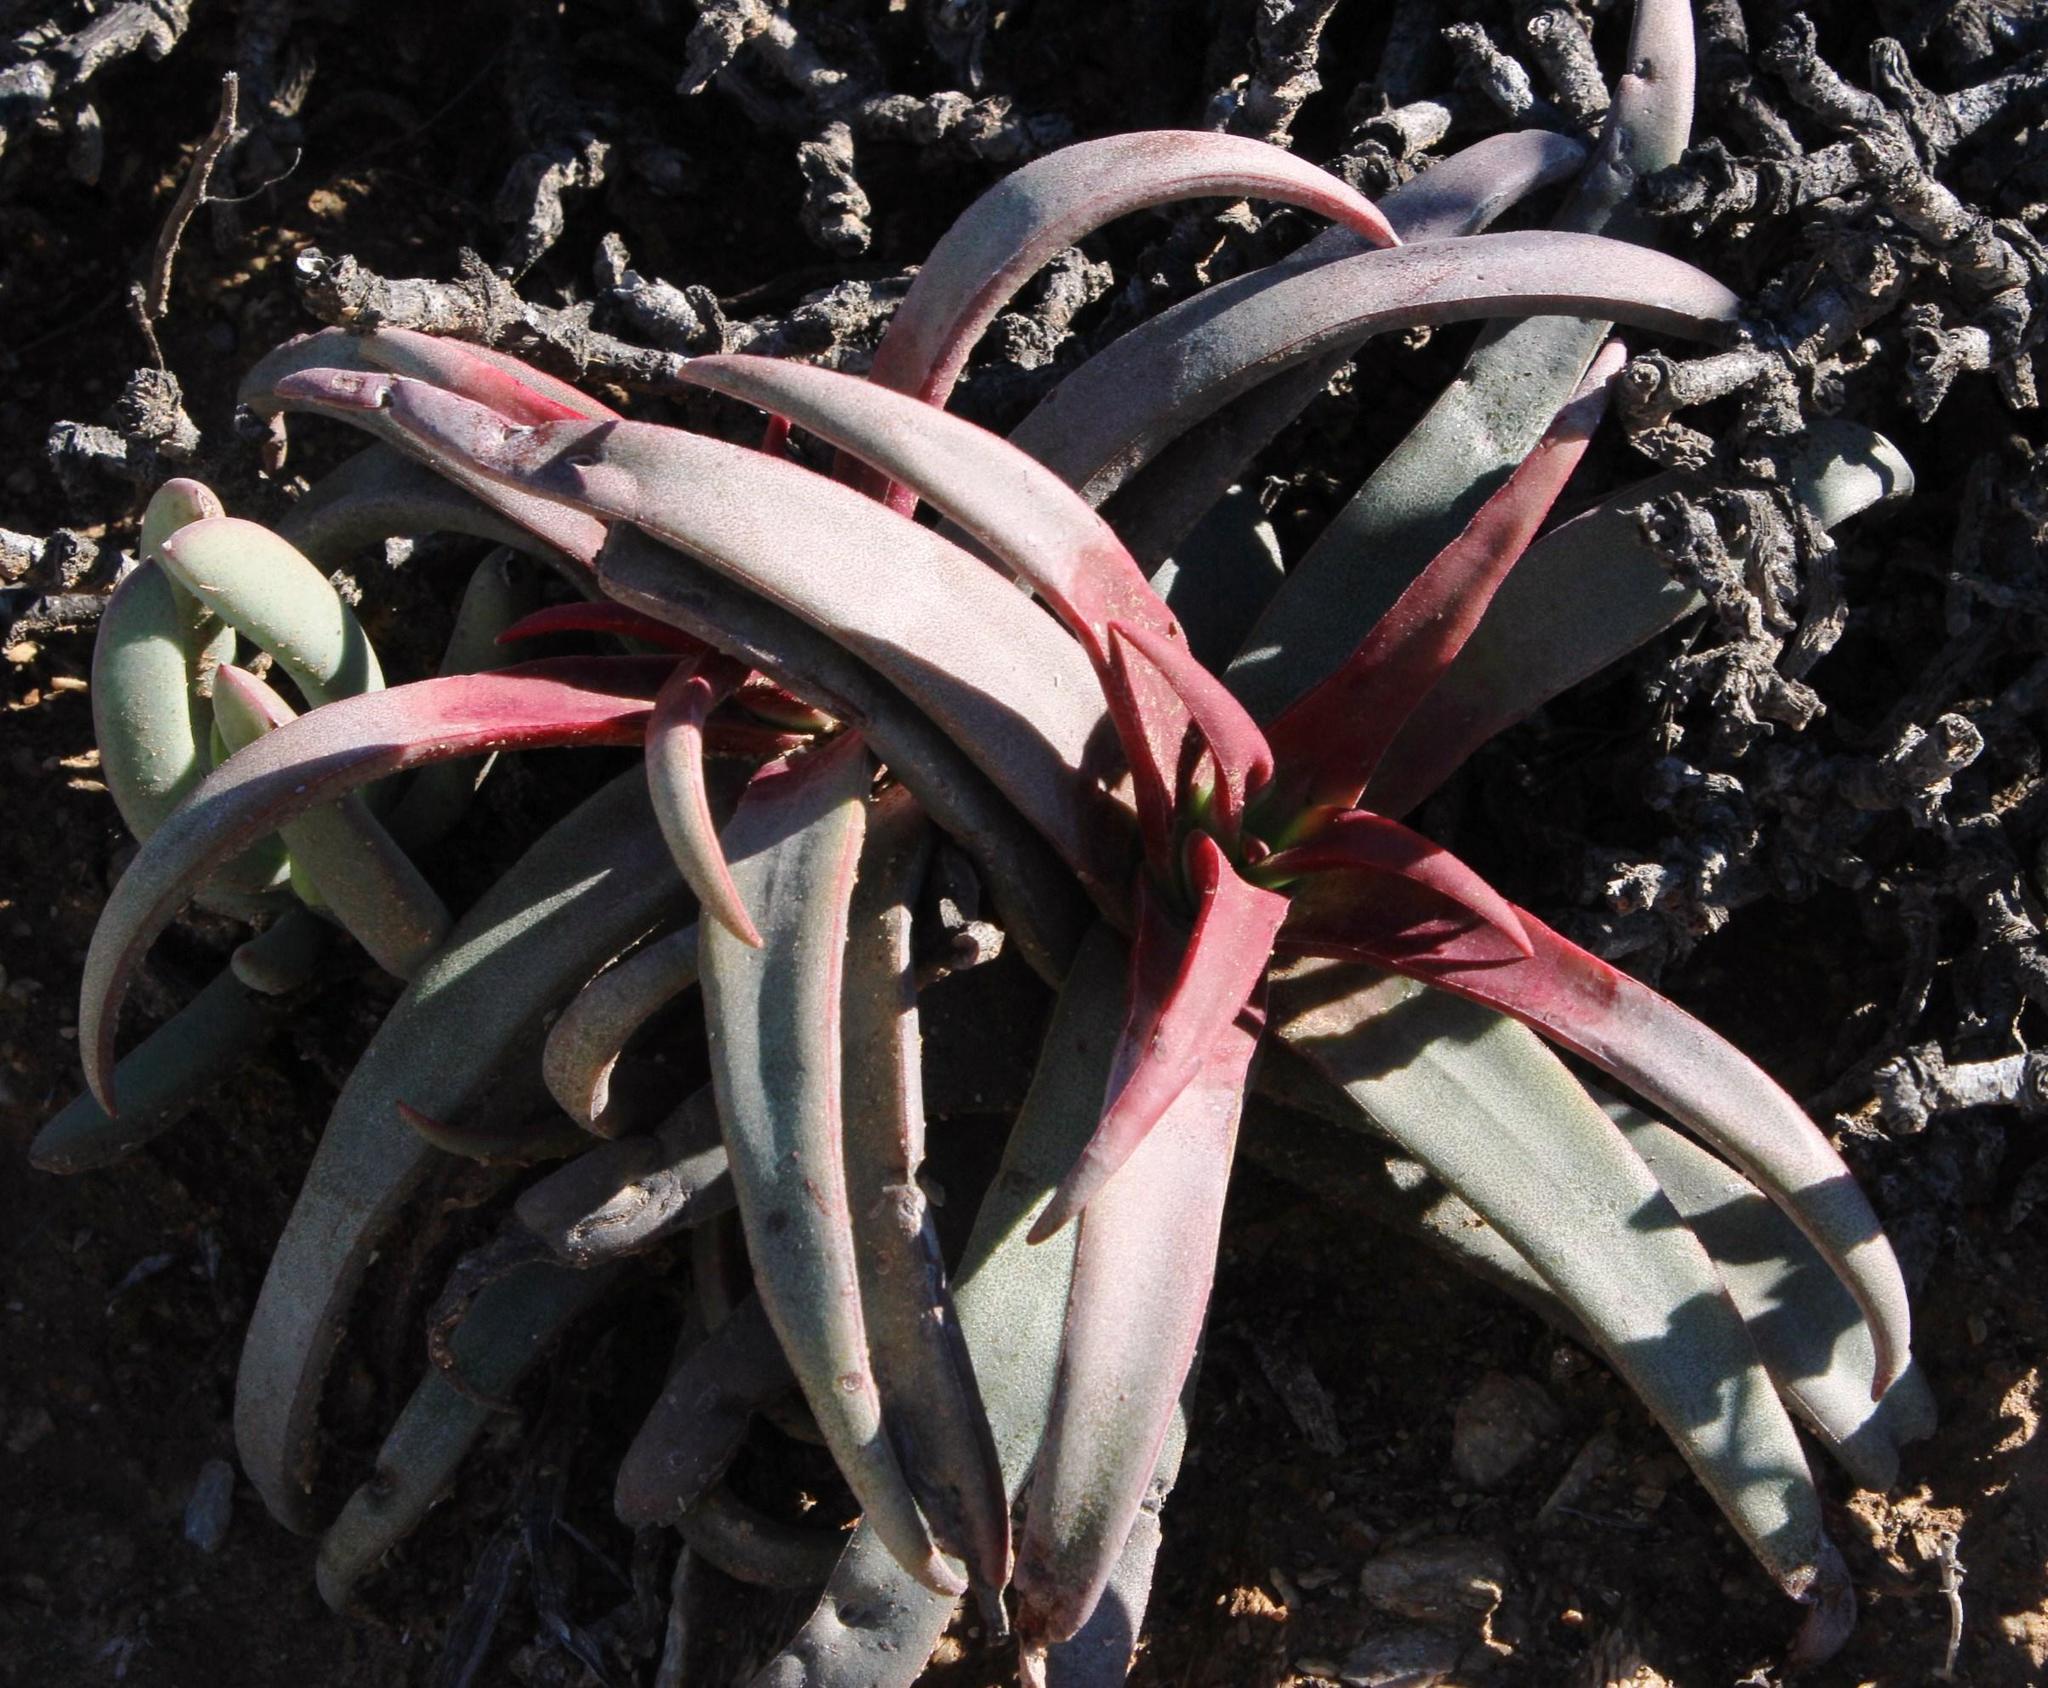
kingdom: Plantae
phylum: Tracheophyta
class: Magnoliopsida
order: Saxifragales
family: Crassulaceae
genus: Crassula
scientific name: Crassula fusca
